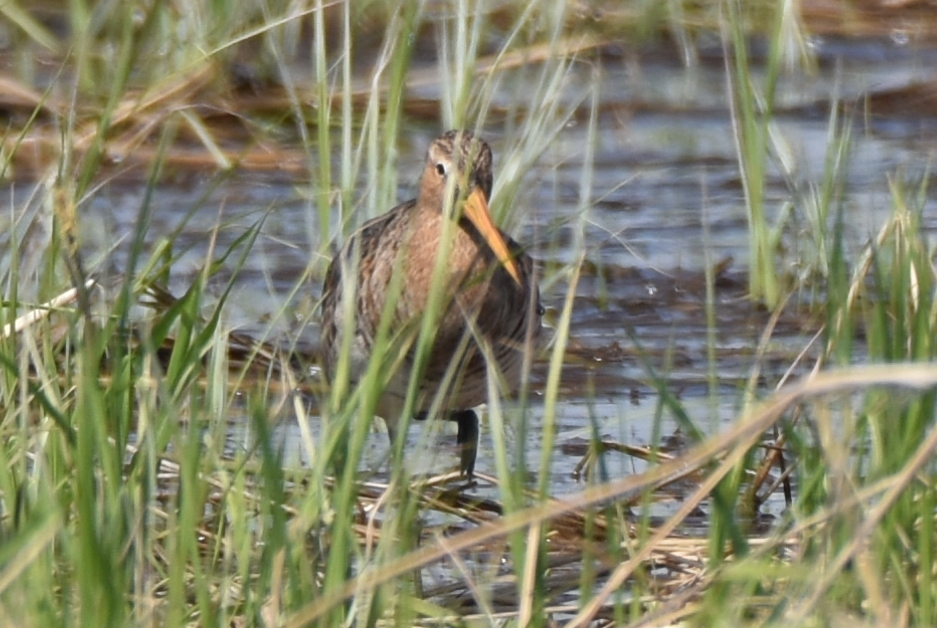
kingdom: Animalia
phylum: Chordata
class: Aves
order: Charadriiformes
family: Scolopacidae
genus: Limosa
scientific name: Limosa limosa
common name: Black-tailed godwit
